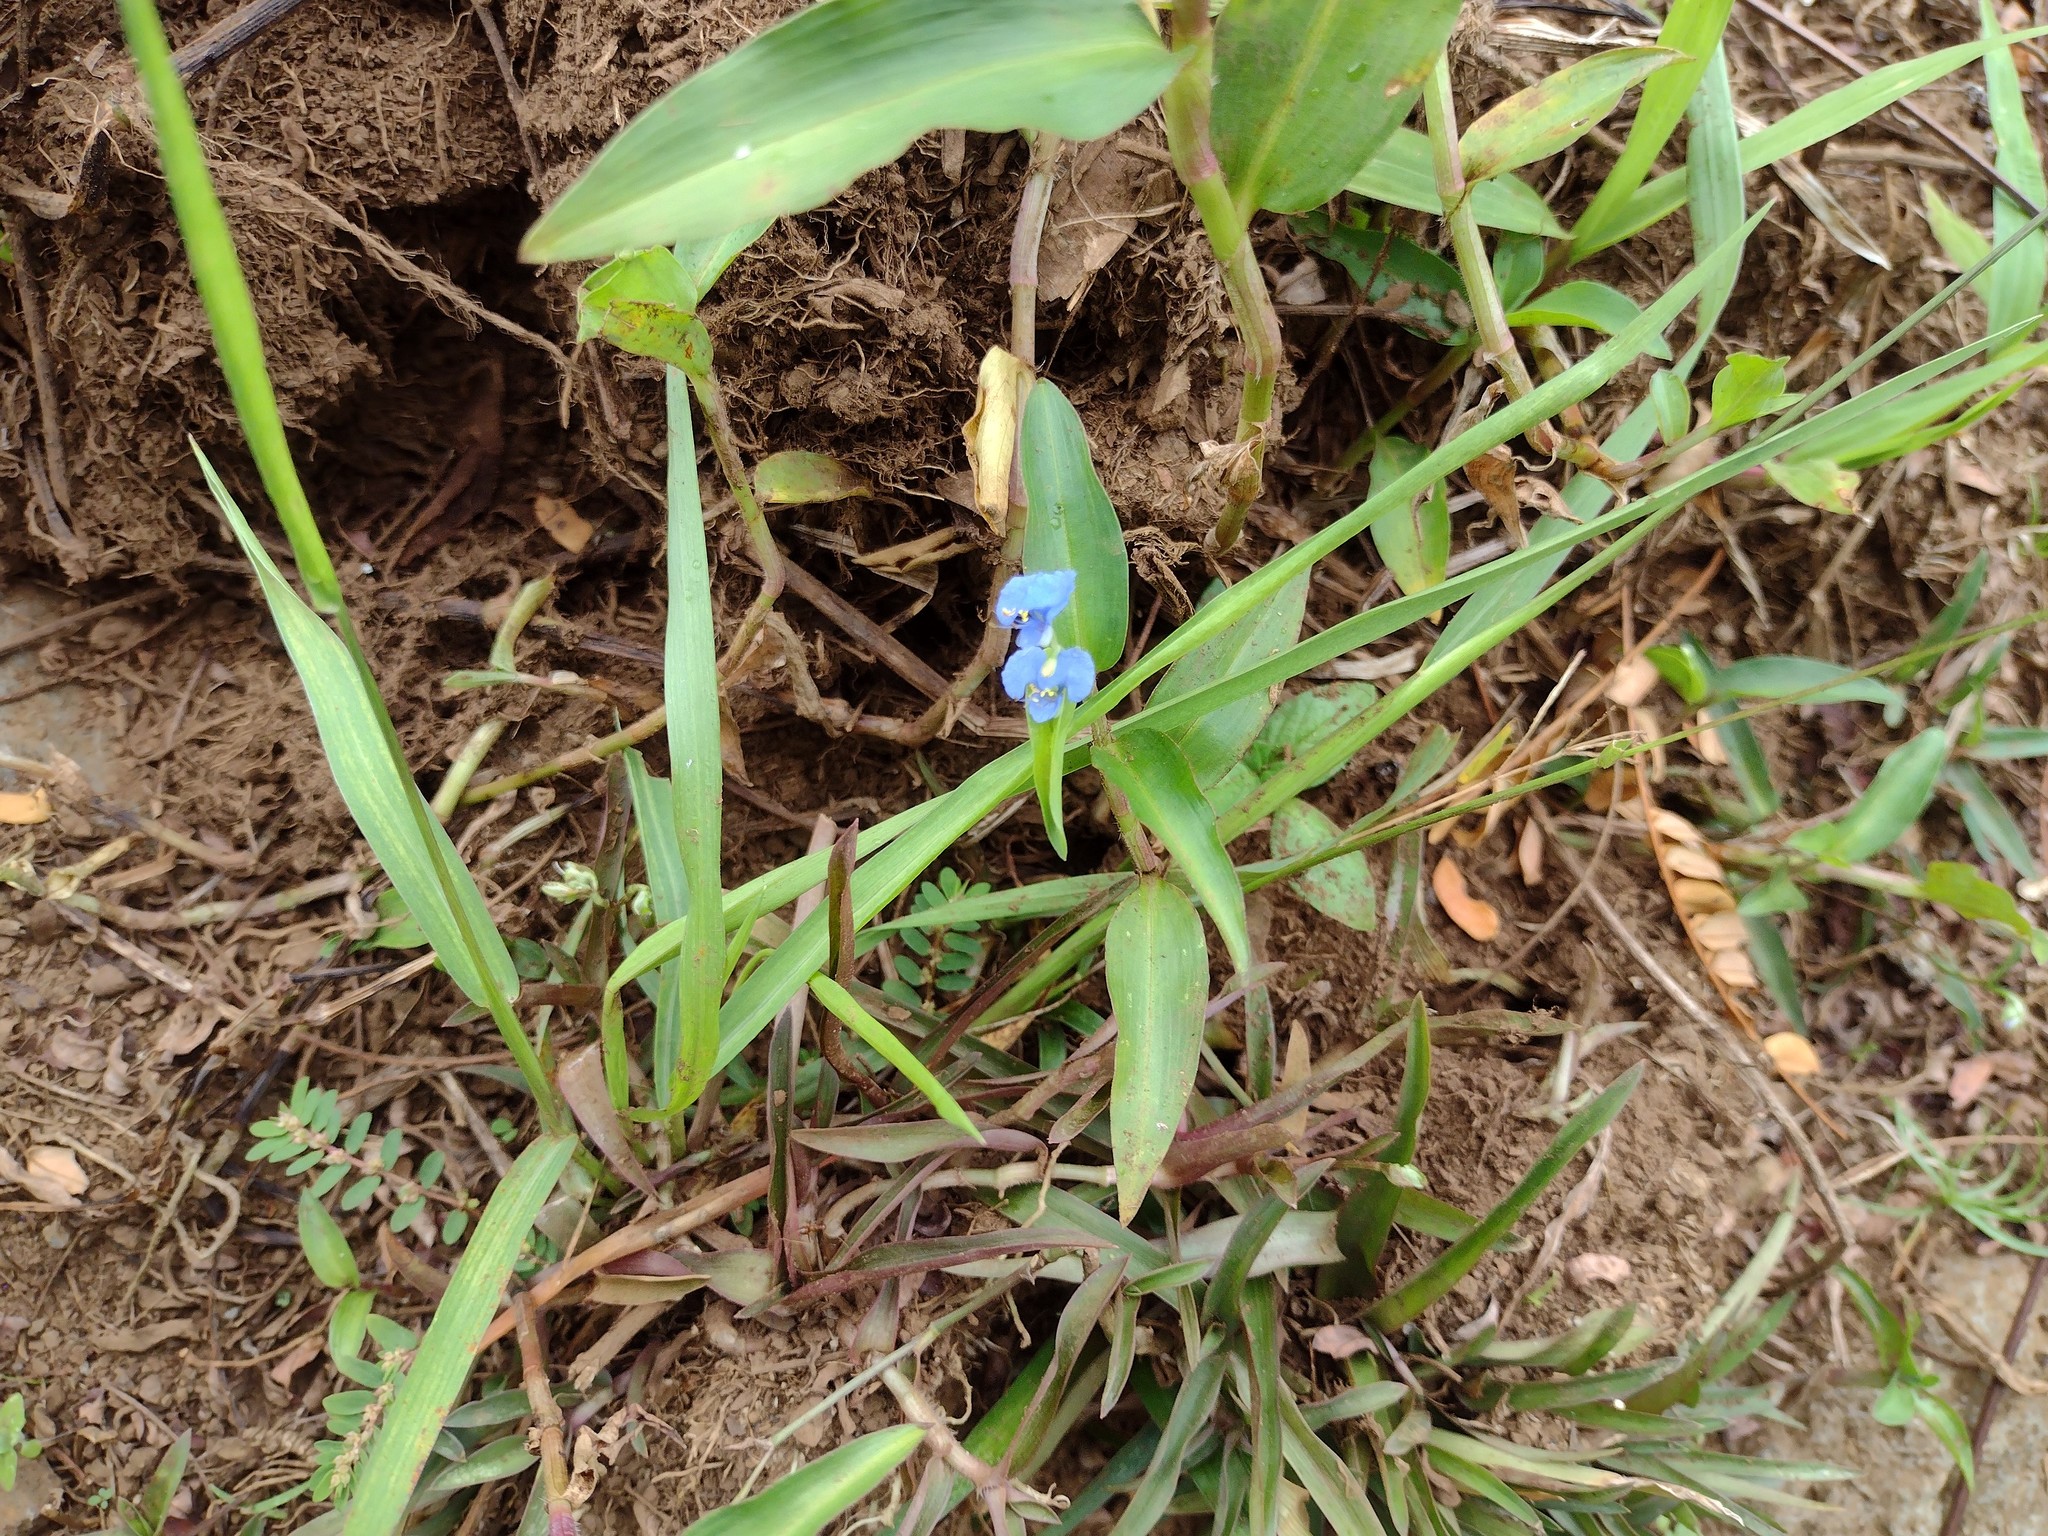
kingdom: Plantae
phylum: Tracheophyta
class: Liliopsida
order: Commelinales
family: Commelinaceae
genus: Commelina
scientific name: Commelina diffusa
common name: Climbing dayflower
